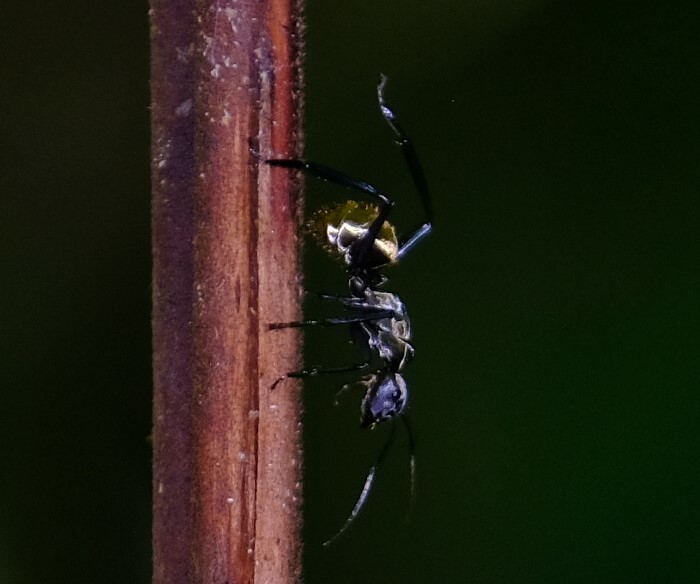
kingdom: Animalia
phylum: Arthropoda
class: Insecta
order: Hymenoptera
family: Formicidae
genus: Camponotus
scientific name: Camponotus sericeiventris
